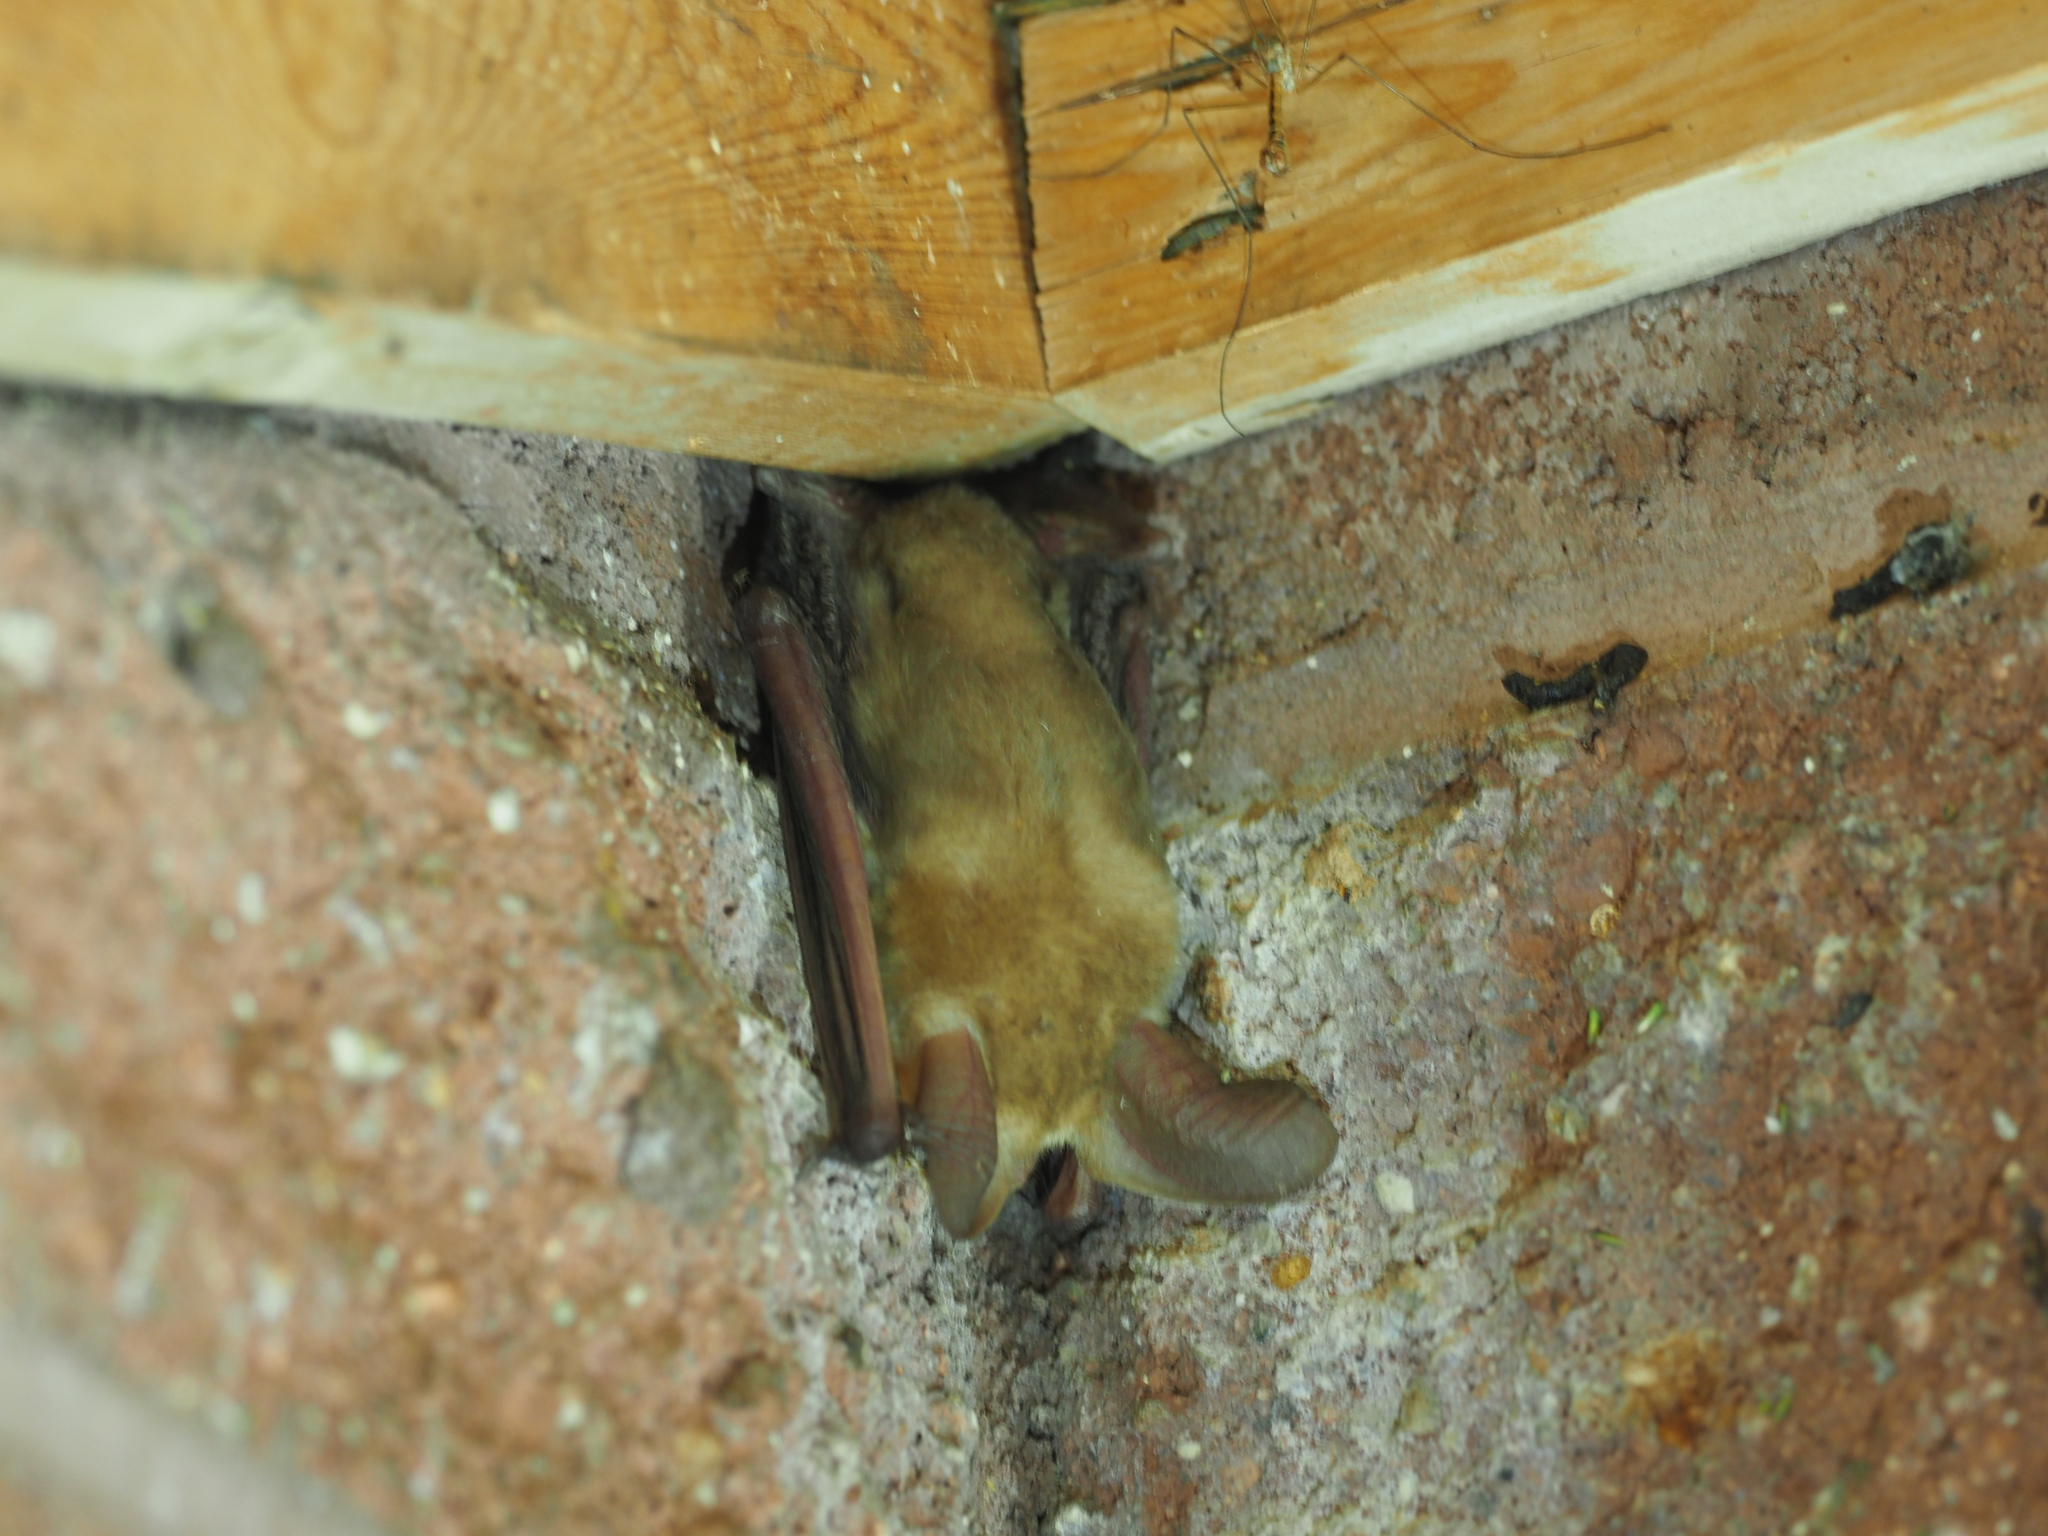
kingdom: Animalia
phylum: Chordata
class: Mammalia
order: Chiroptera
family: Vespertilionidae
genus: Antrozous
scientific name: Antrozous pallidus
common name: Pallid bat
